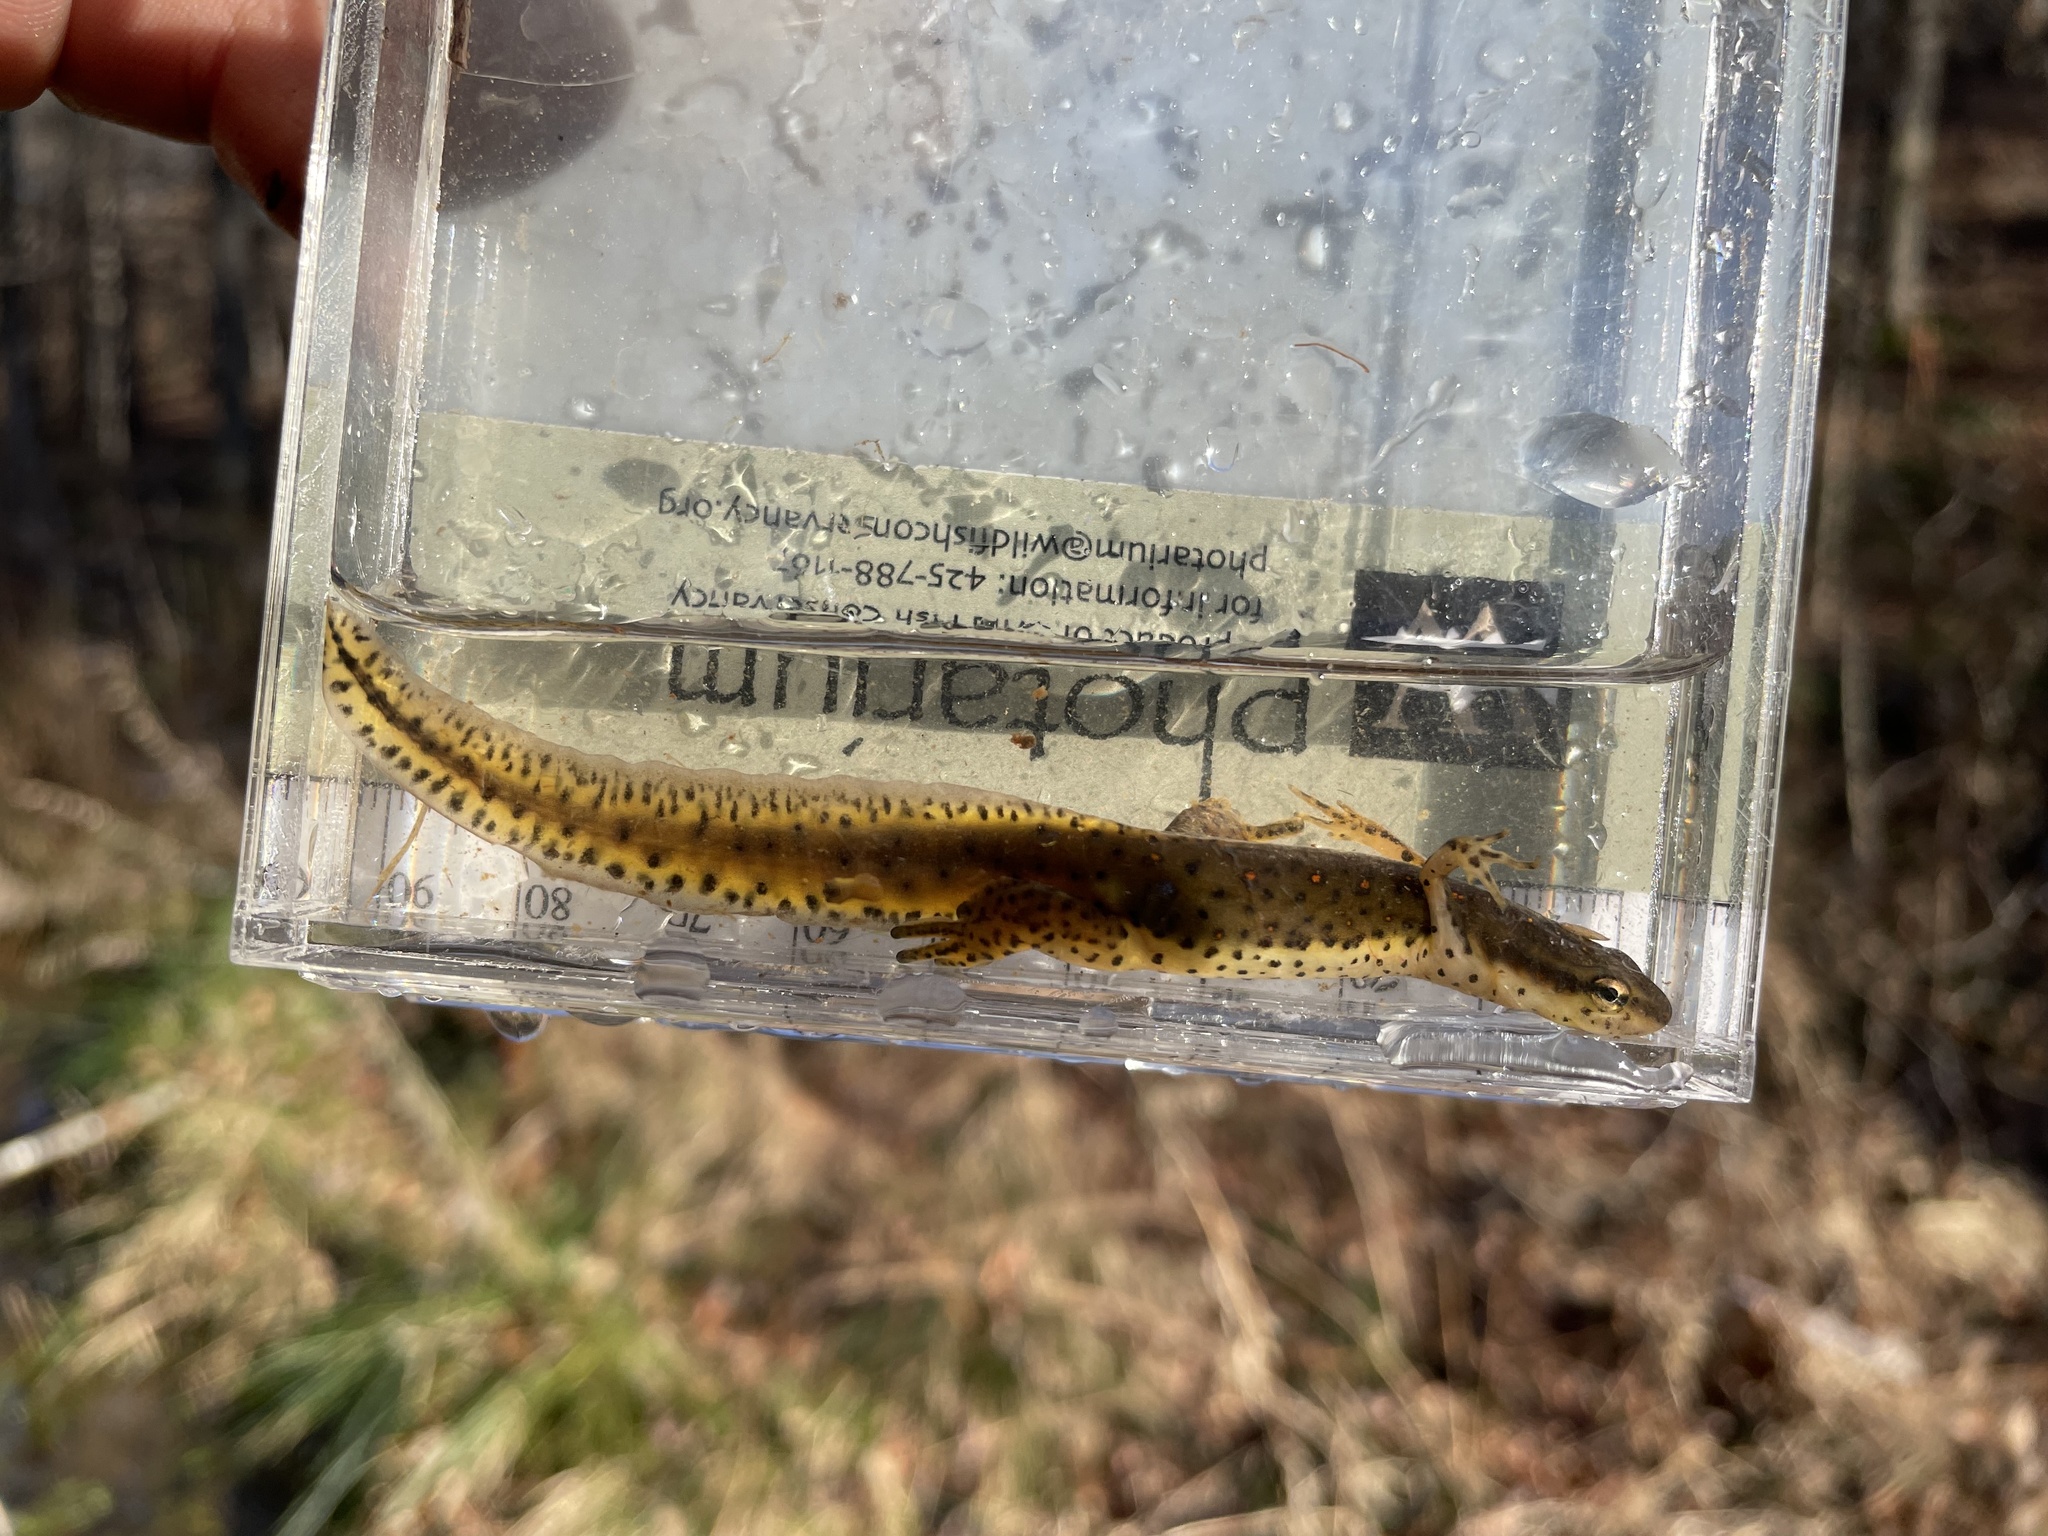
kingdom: Animalia
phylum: Chordata
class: Amphibia
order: Caudata
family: Salamandridae
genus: Notophthalmus
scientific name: Notophthalmus viridescens
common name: Eastern newt
